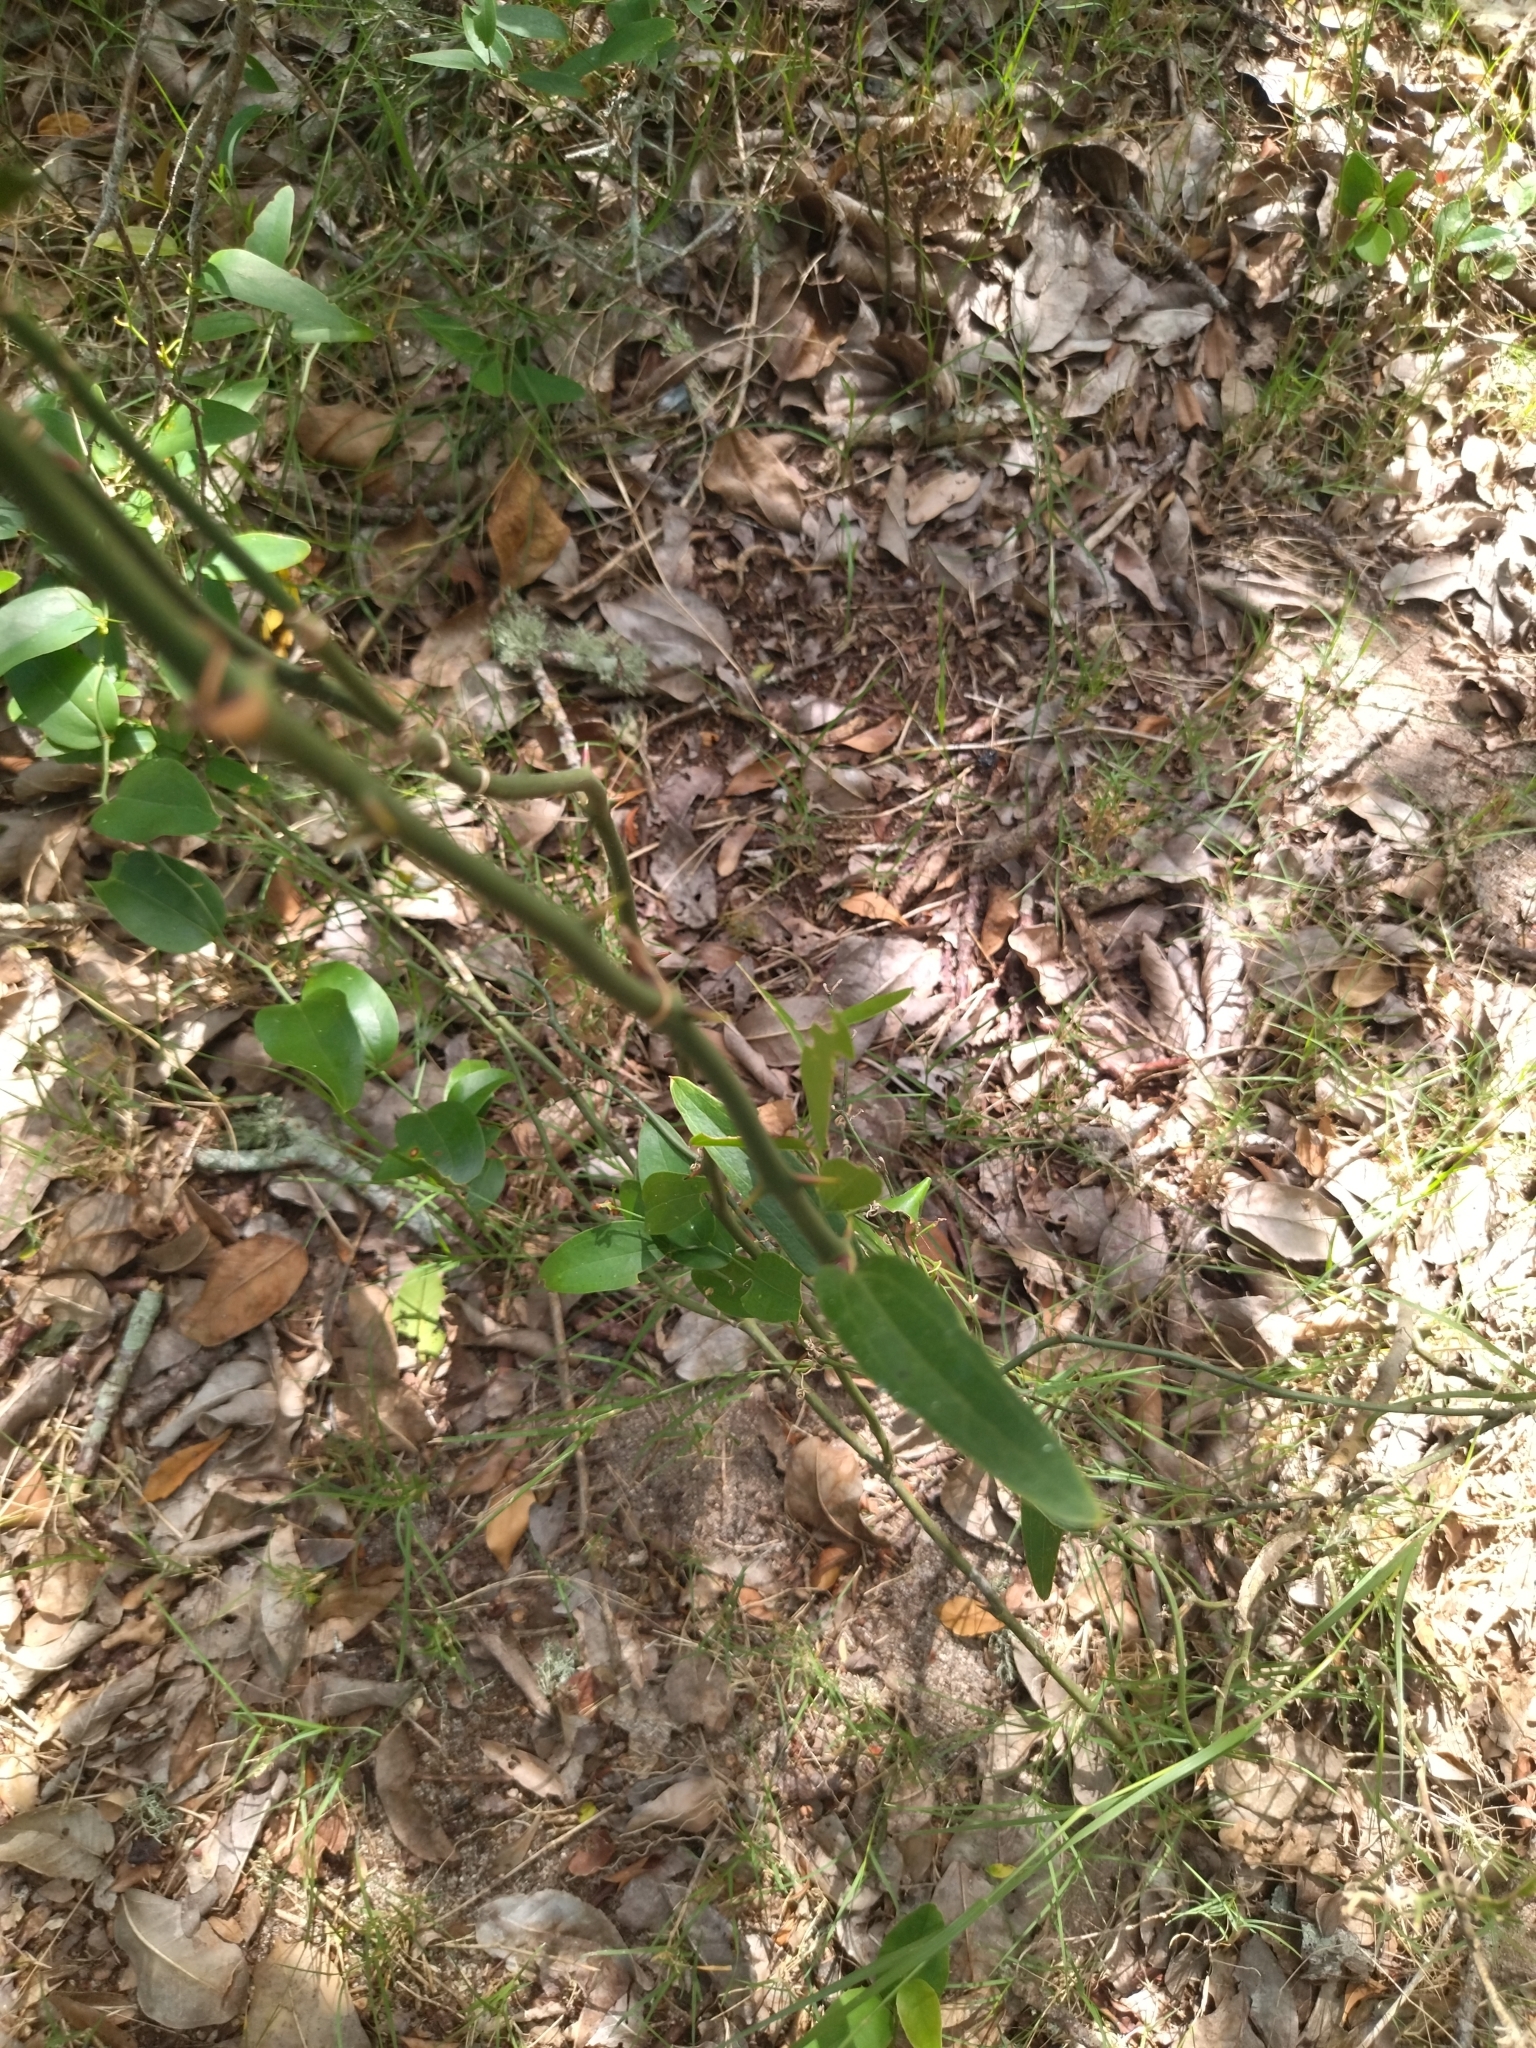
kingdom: Plantae
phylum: Tracheophyta
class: Liliopsida
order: Liliales
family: Smilacaceae
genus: Smilax
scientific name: Smilax campestris
